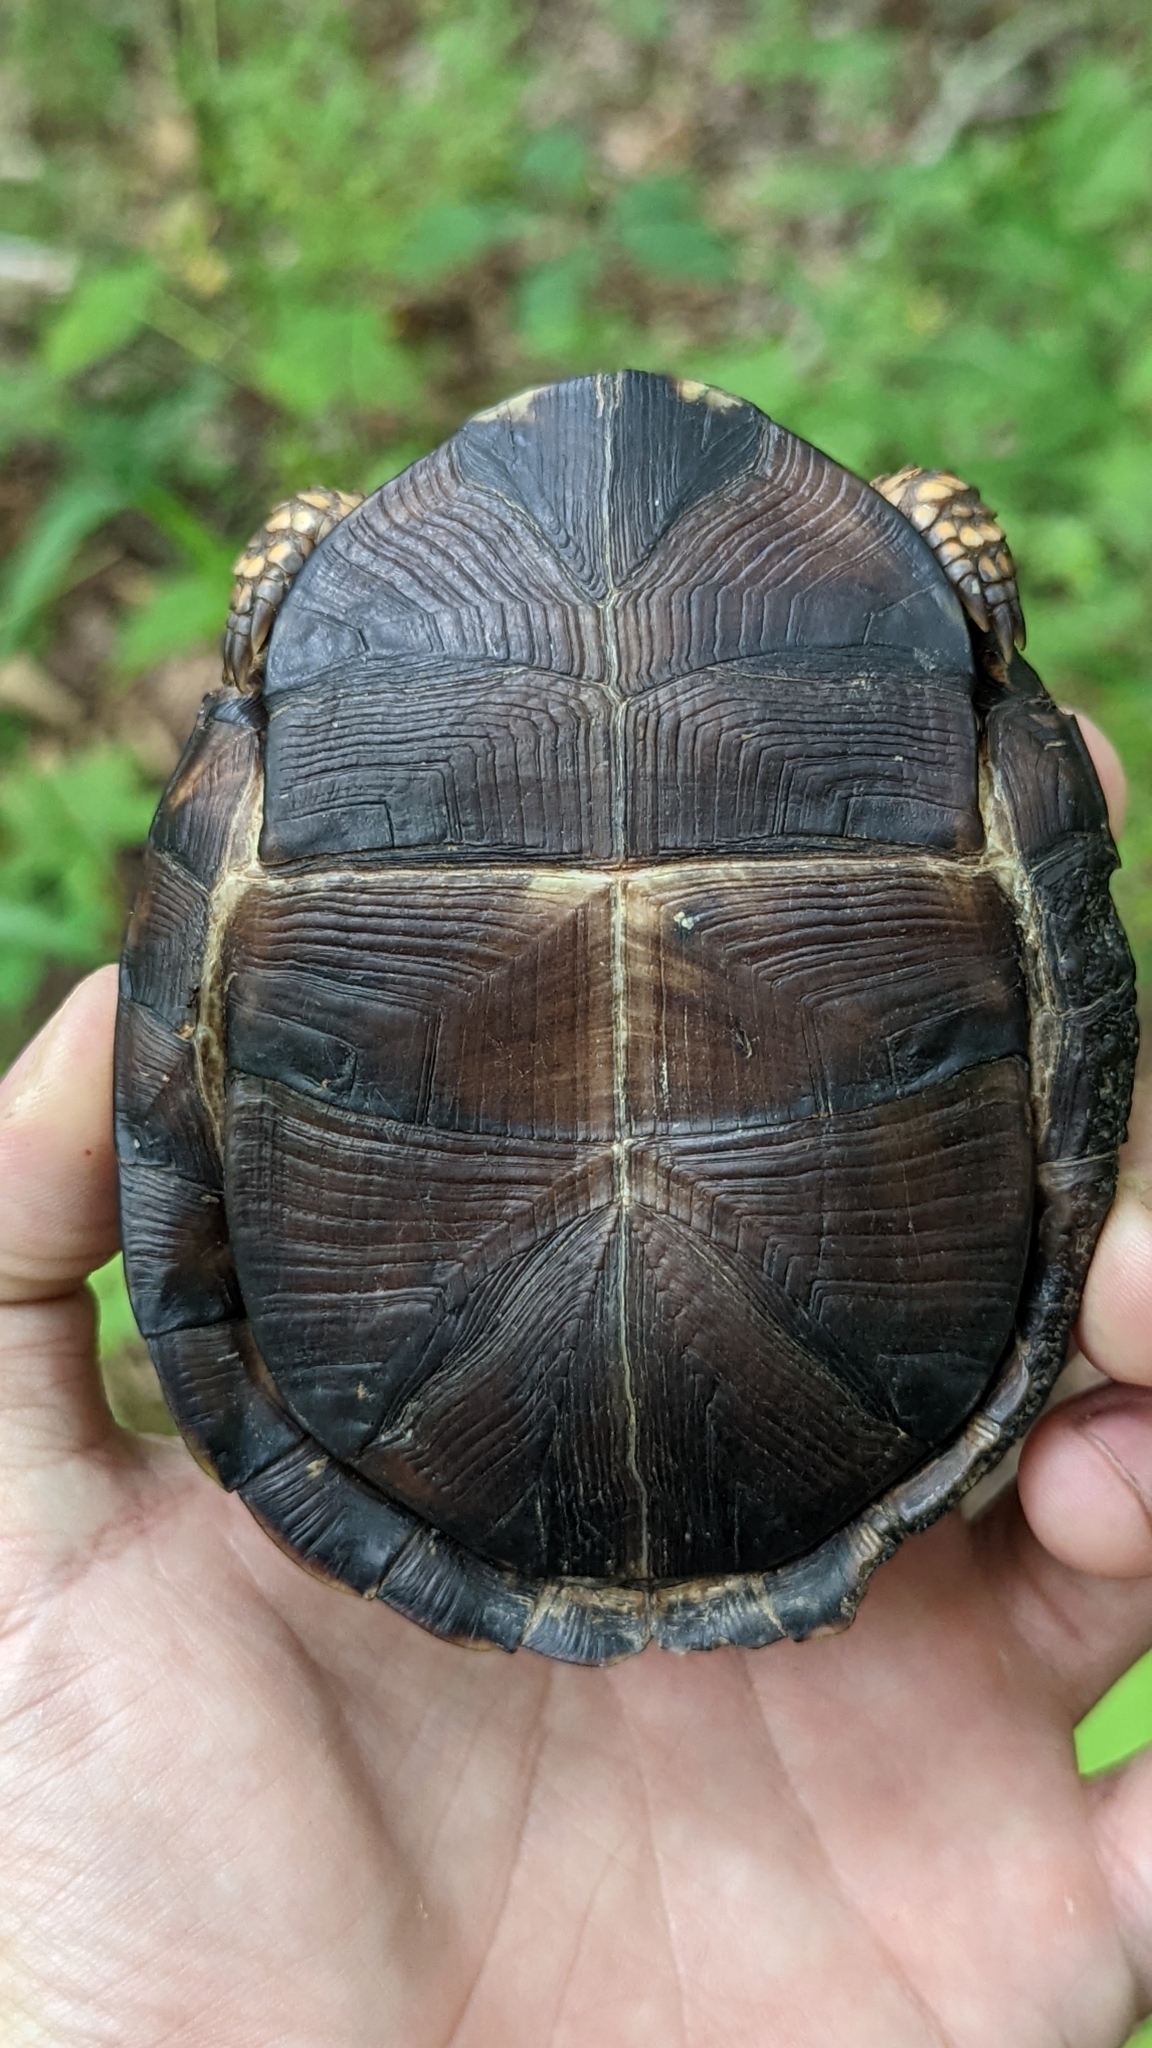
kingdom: Animalia
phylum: Chordata
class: Testudines
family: Emydidae
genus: Terrapene
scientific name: Terrapene carolina
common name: Common box turtle
